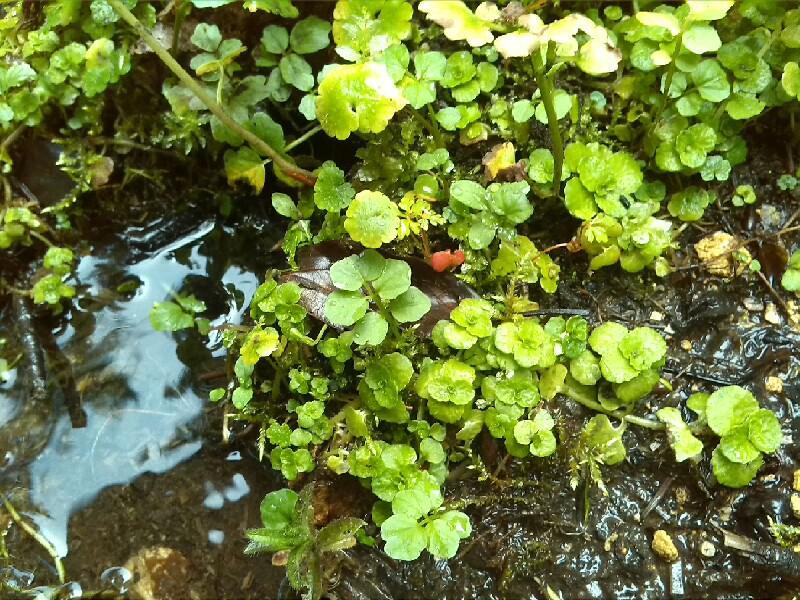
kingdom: Plantae
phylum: Tracheophyta
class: Magnoliopsida
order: Saxifragales
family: Saxifragaceae
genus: Chrysosplenium
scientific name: Chrysosplenium oppositifolium
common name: Opposite-leaved golden-saxifrage
